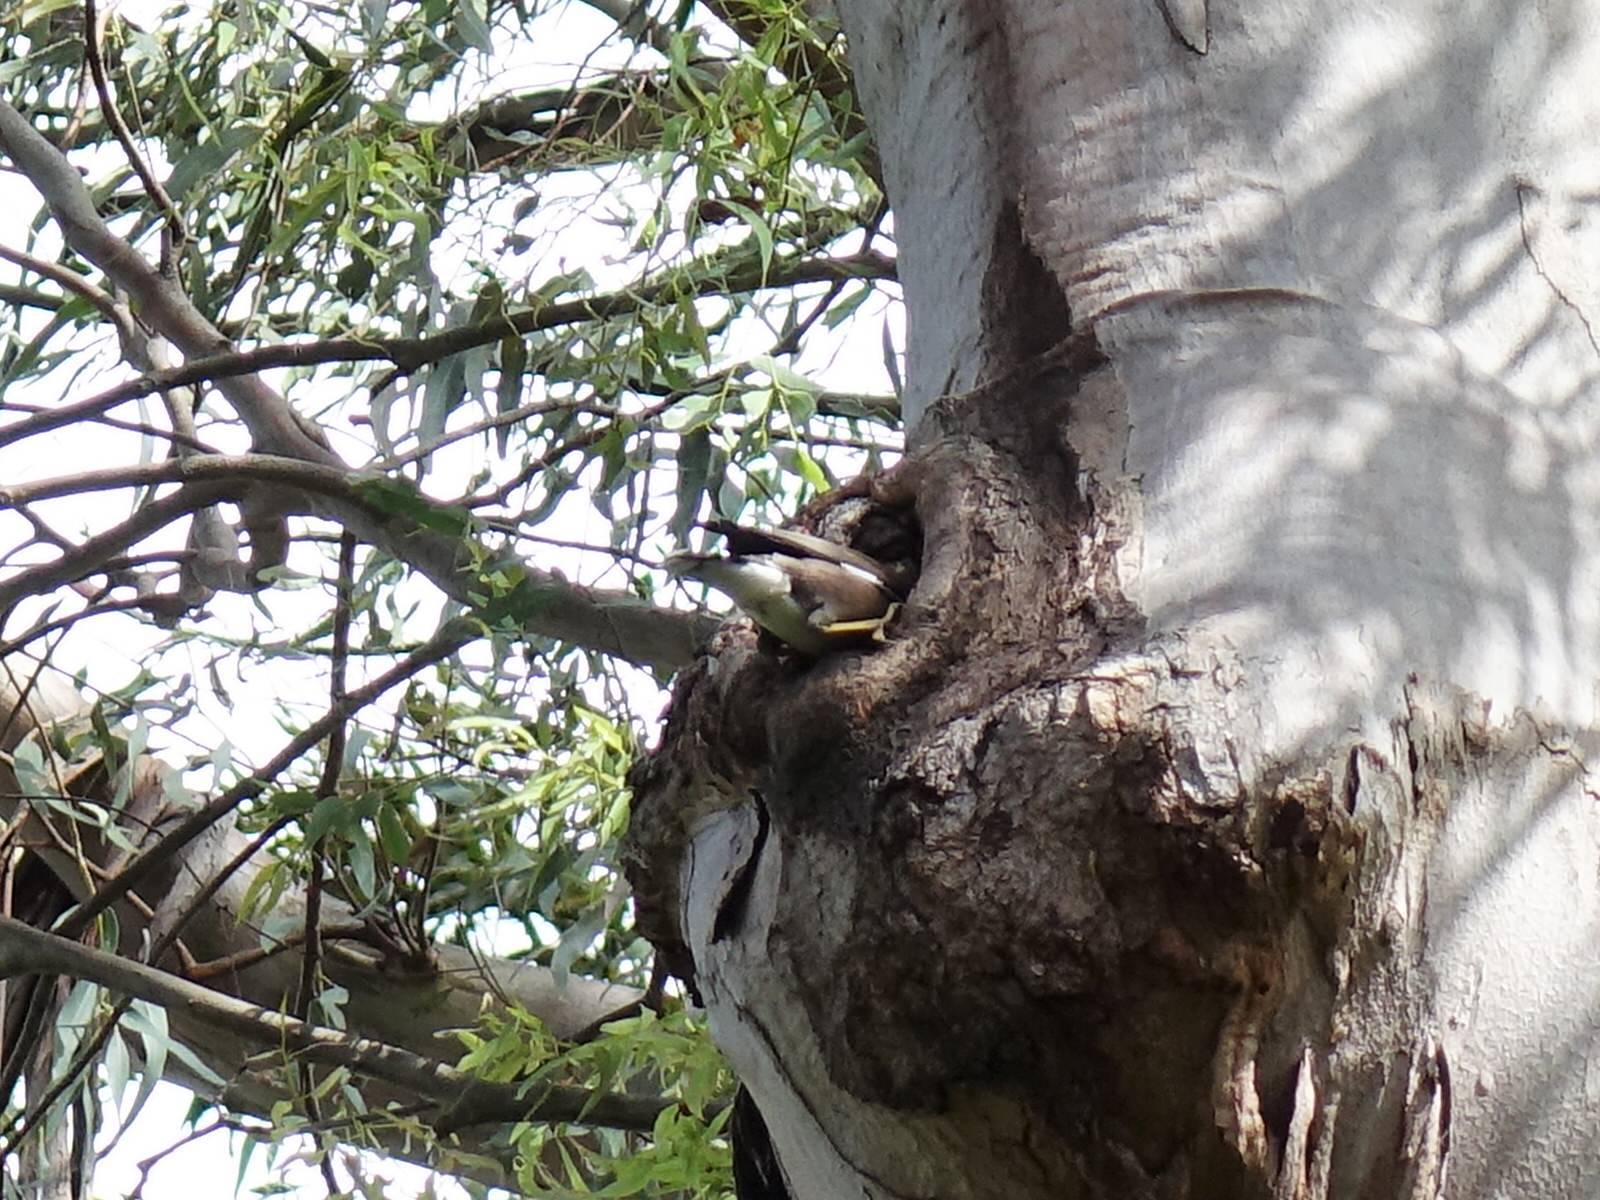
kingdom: Animalia
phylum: Chordata
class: Aves
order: Passeriformes
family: Sturnidae
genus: Acridotheres
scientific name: Acridotheres tristis
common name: Common myna
